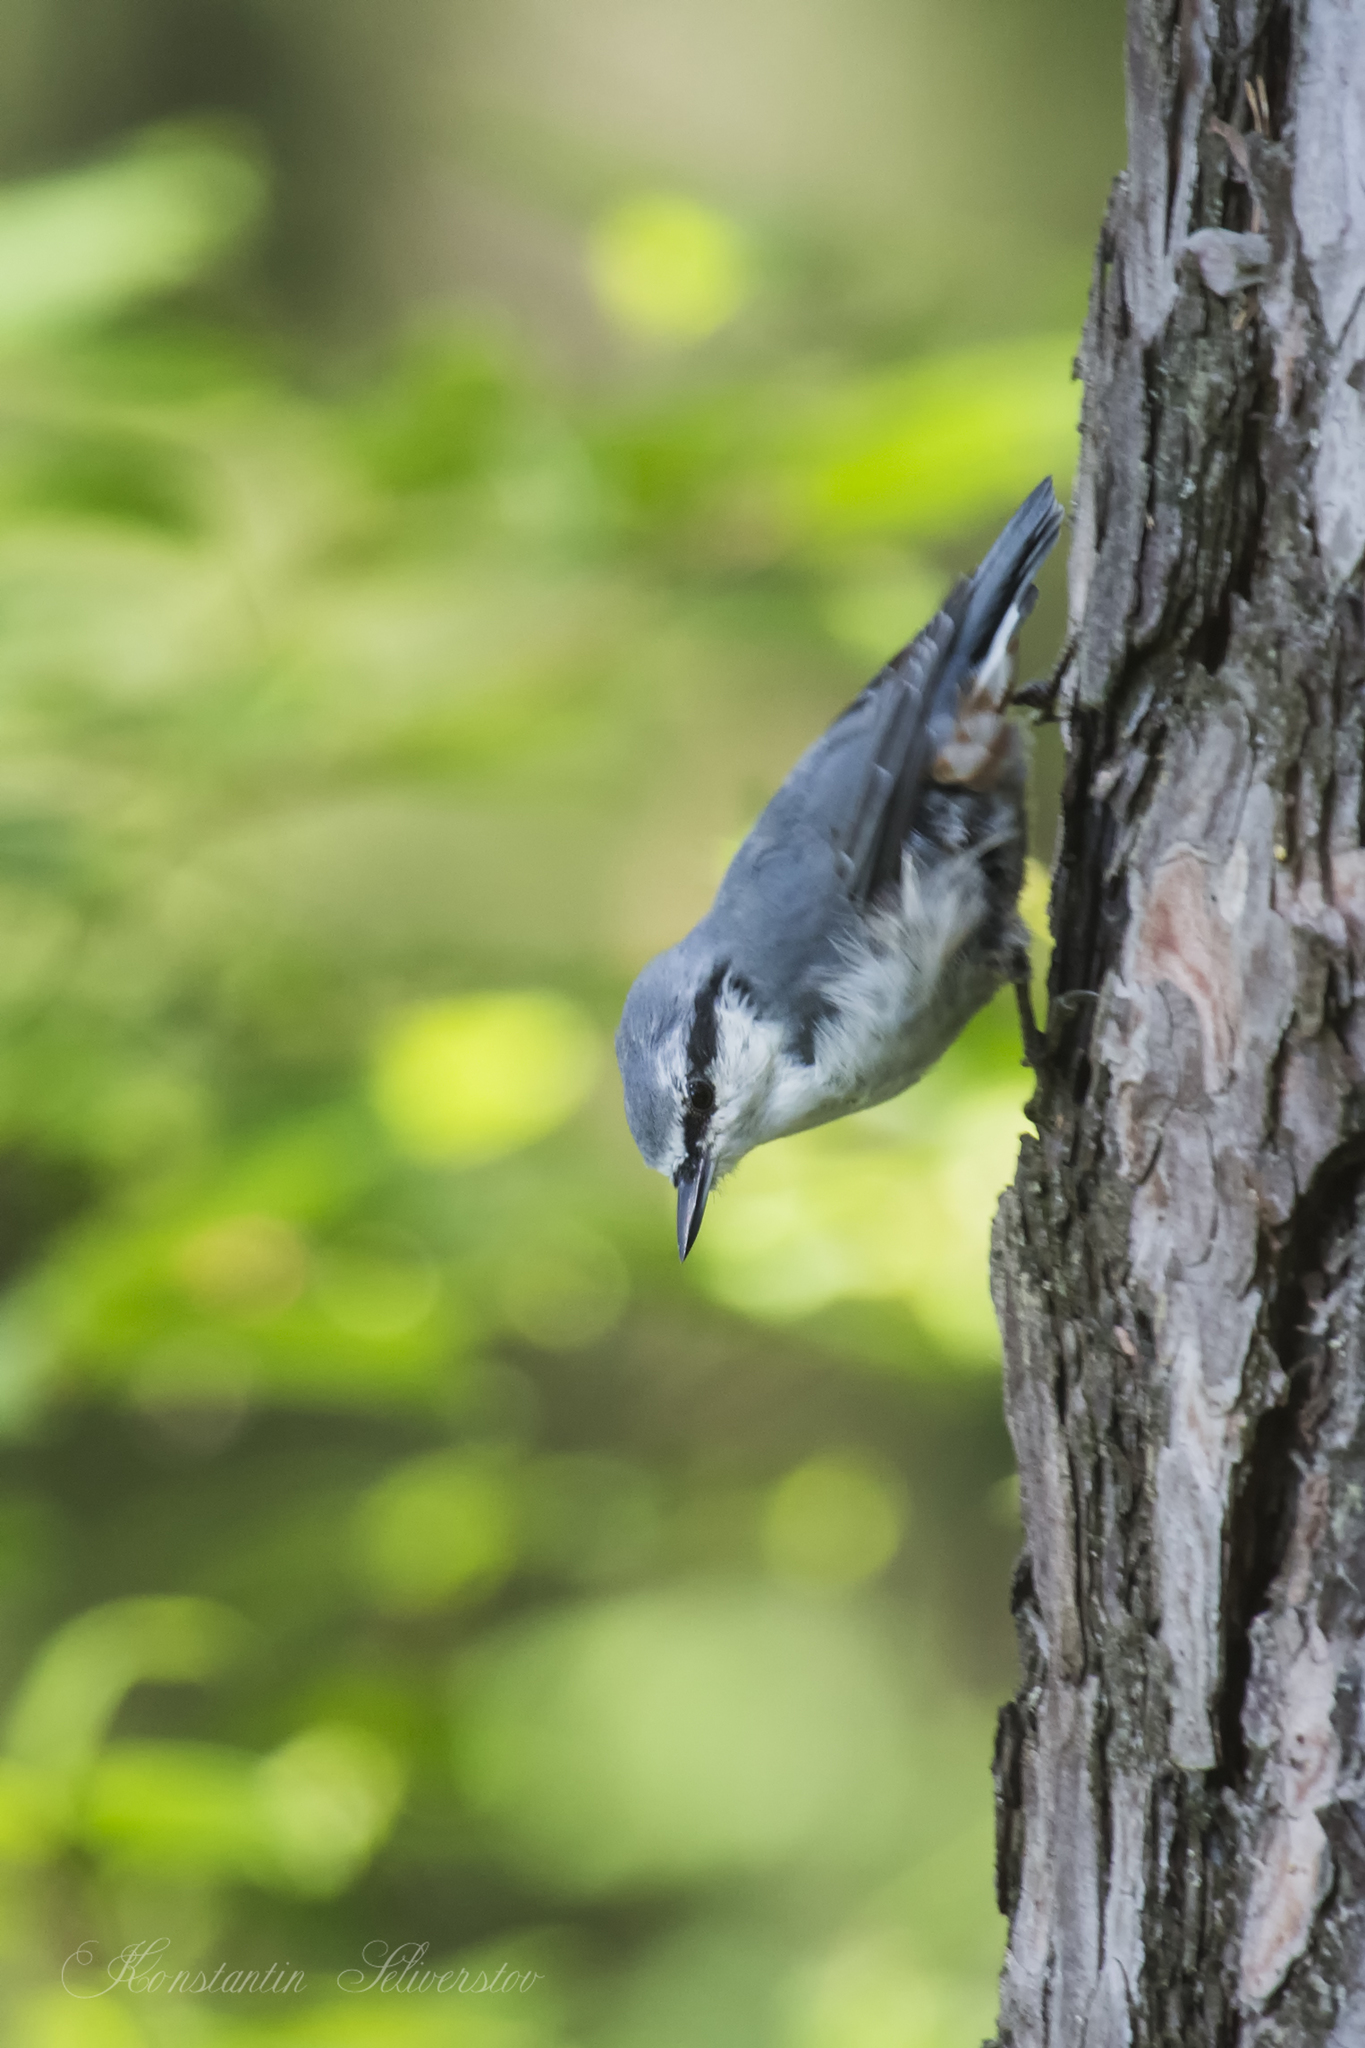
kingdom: Animalia
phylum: Chordata
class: Aves
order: Passeriformes
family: Sittidae
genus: Sitta
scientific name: Sitta europaea
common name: Eurasian nuthatch
